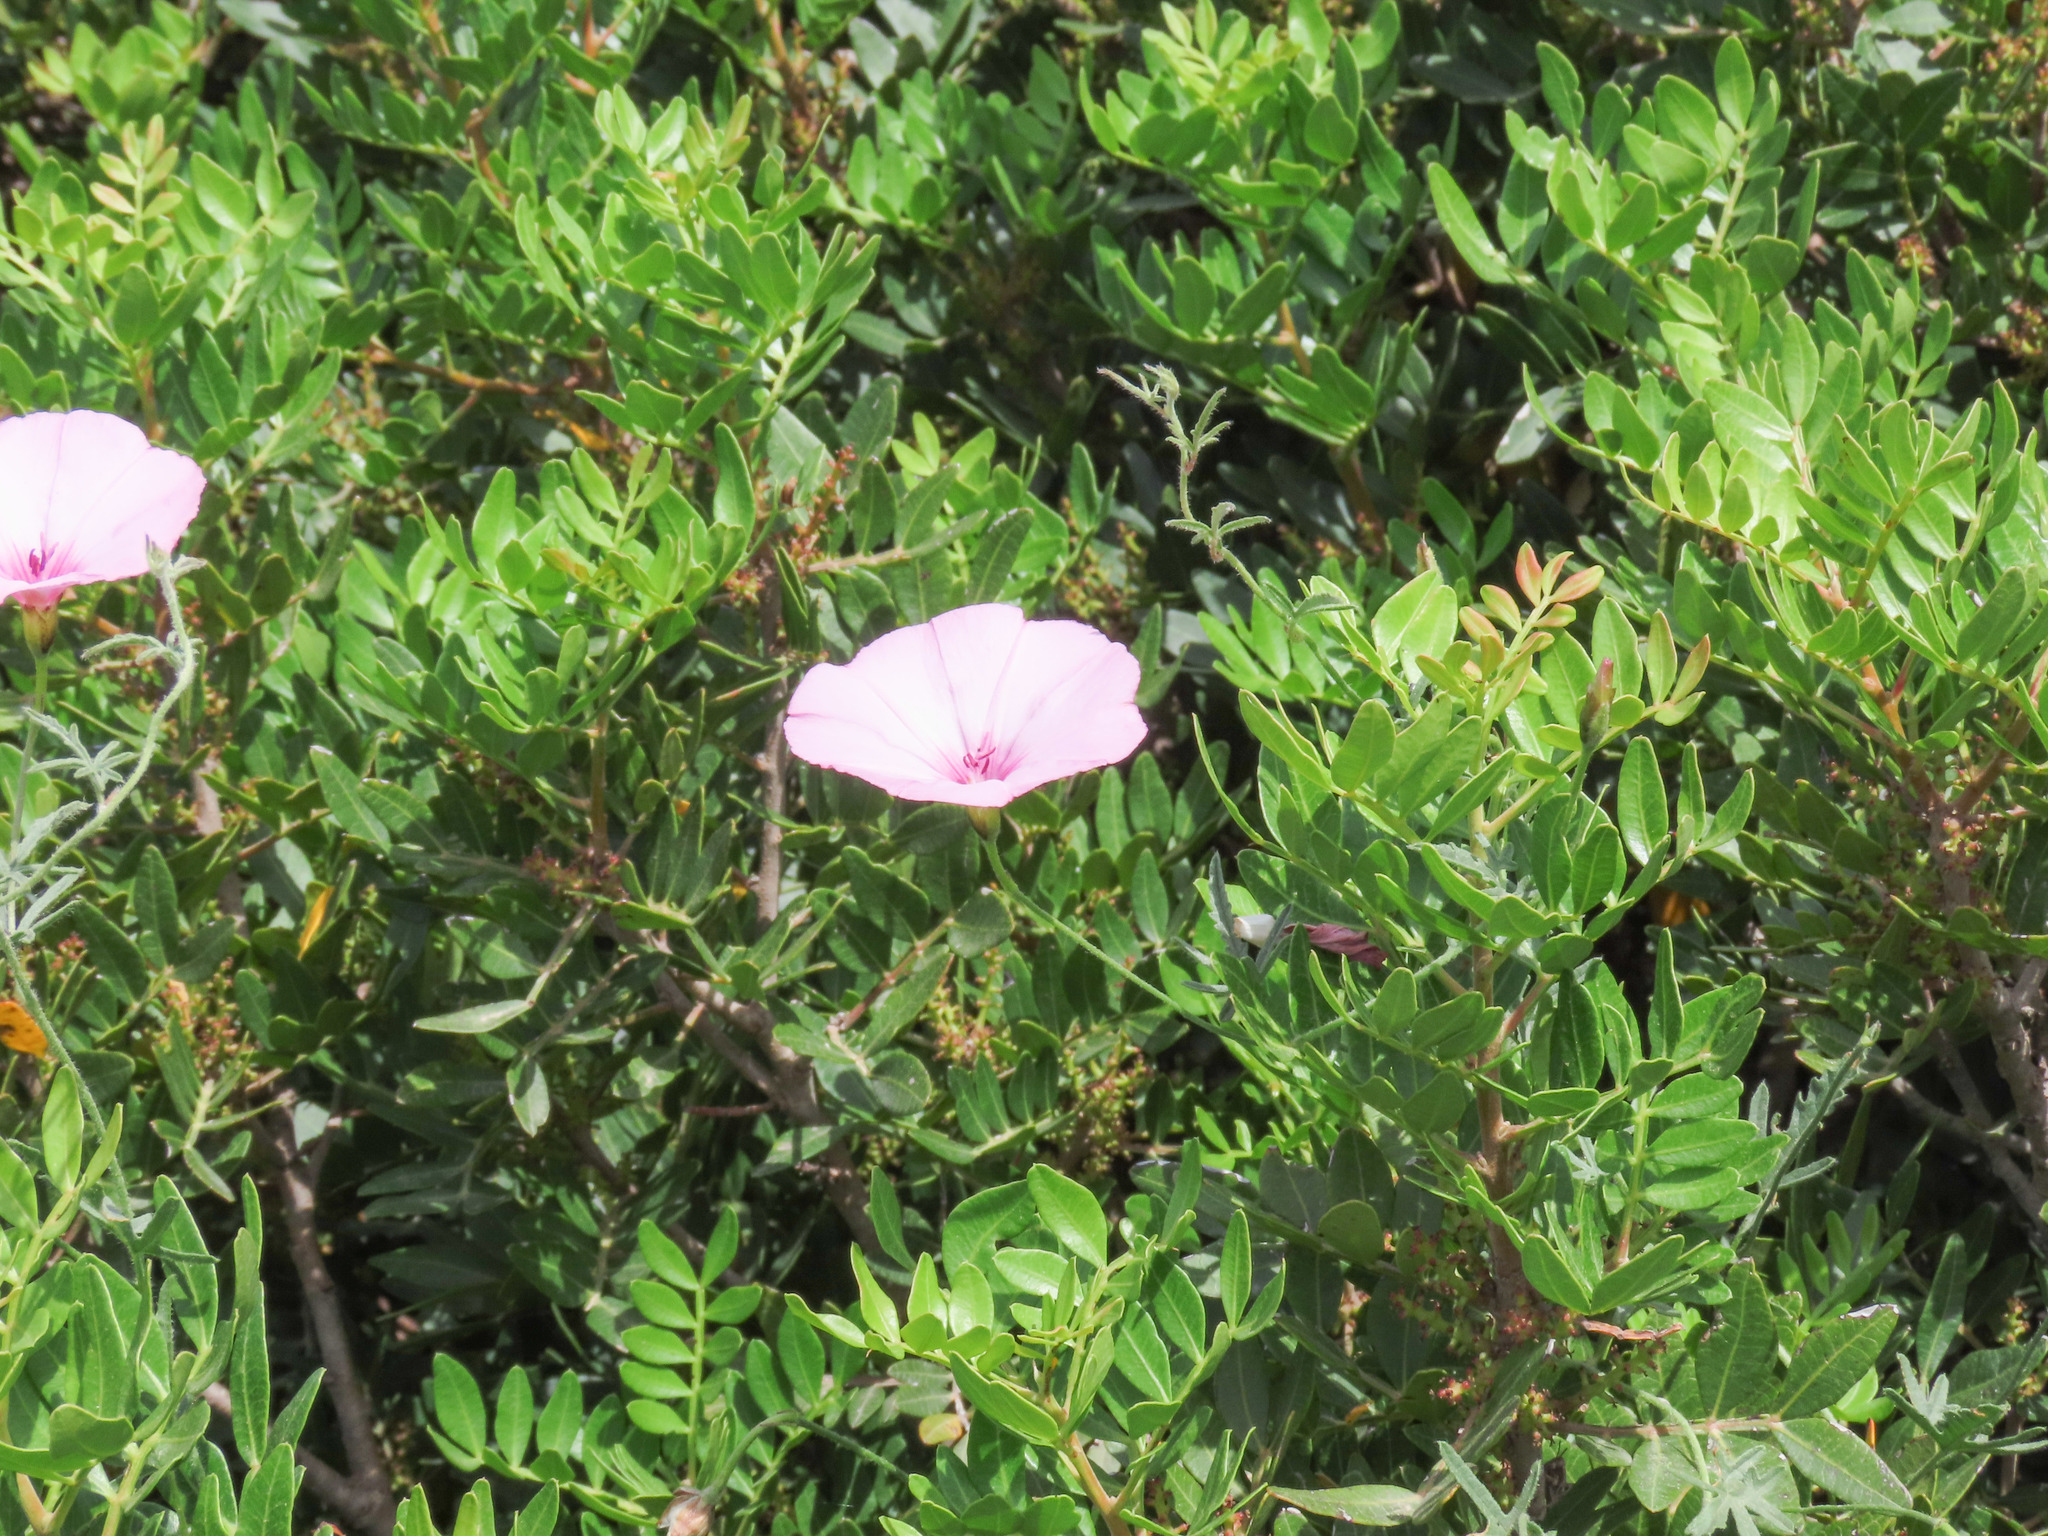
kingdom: Plantae
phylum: Tracheophyta
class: Magnoliopsida
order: Solanales
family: Convolvulaceae
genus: Convolvulus
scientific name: Convolvulus althaeoides
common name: Mallow bindweed
